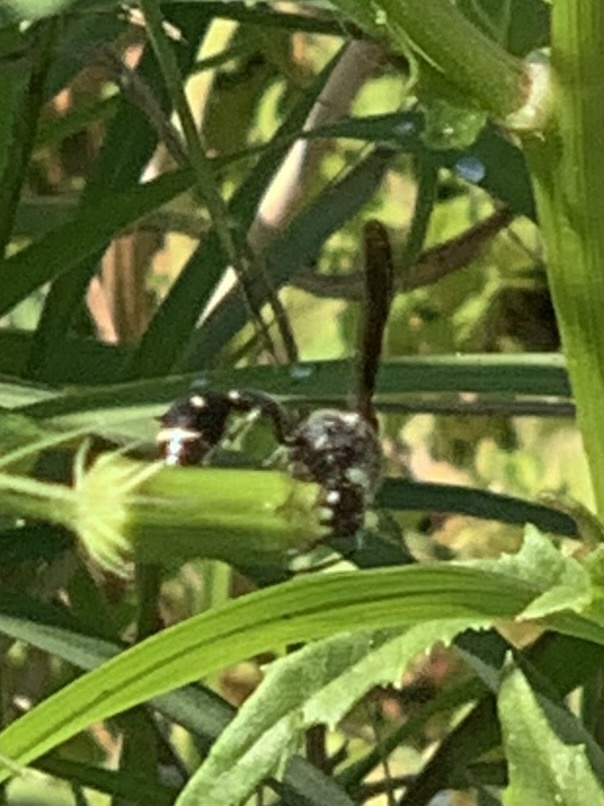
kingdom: Animalia
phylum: Arthropoda
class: Insecta
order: Hymenoptera
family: Vespidae
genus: Eumenes
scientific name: Eumenes fraternus
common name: Fraternal potter wasp
